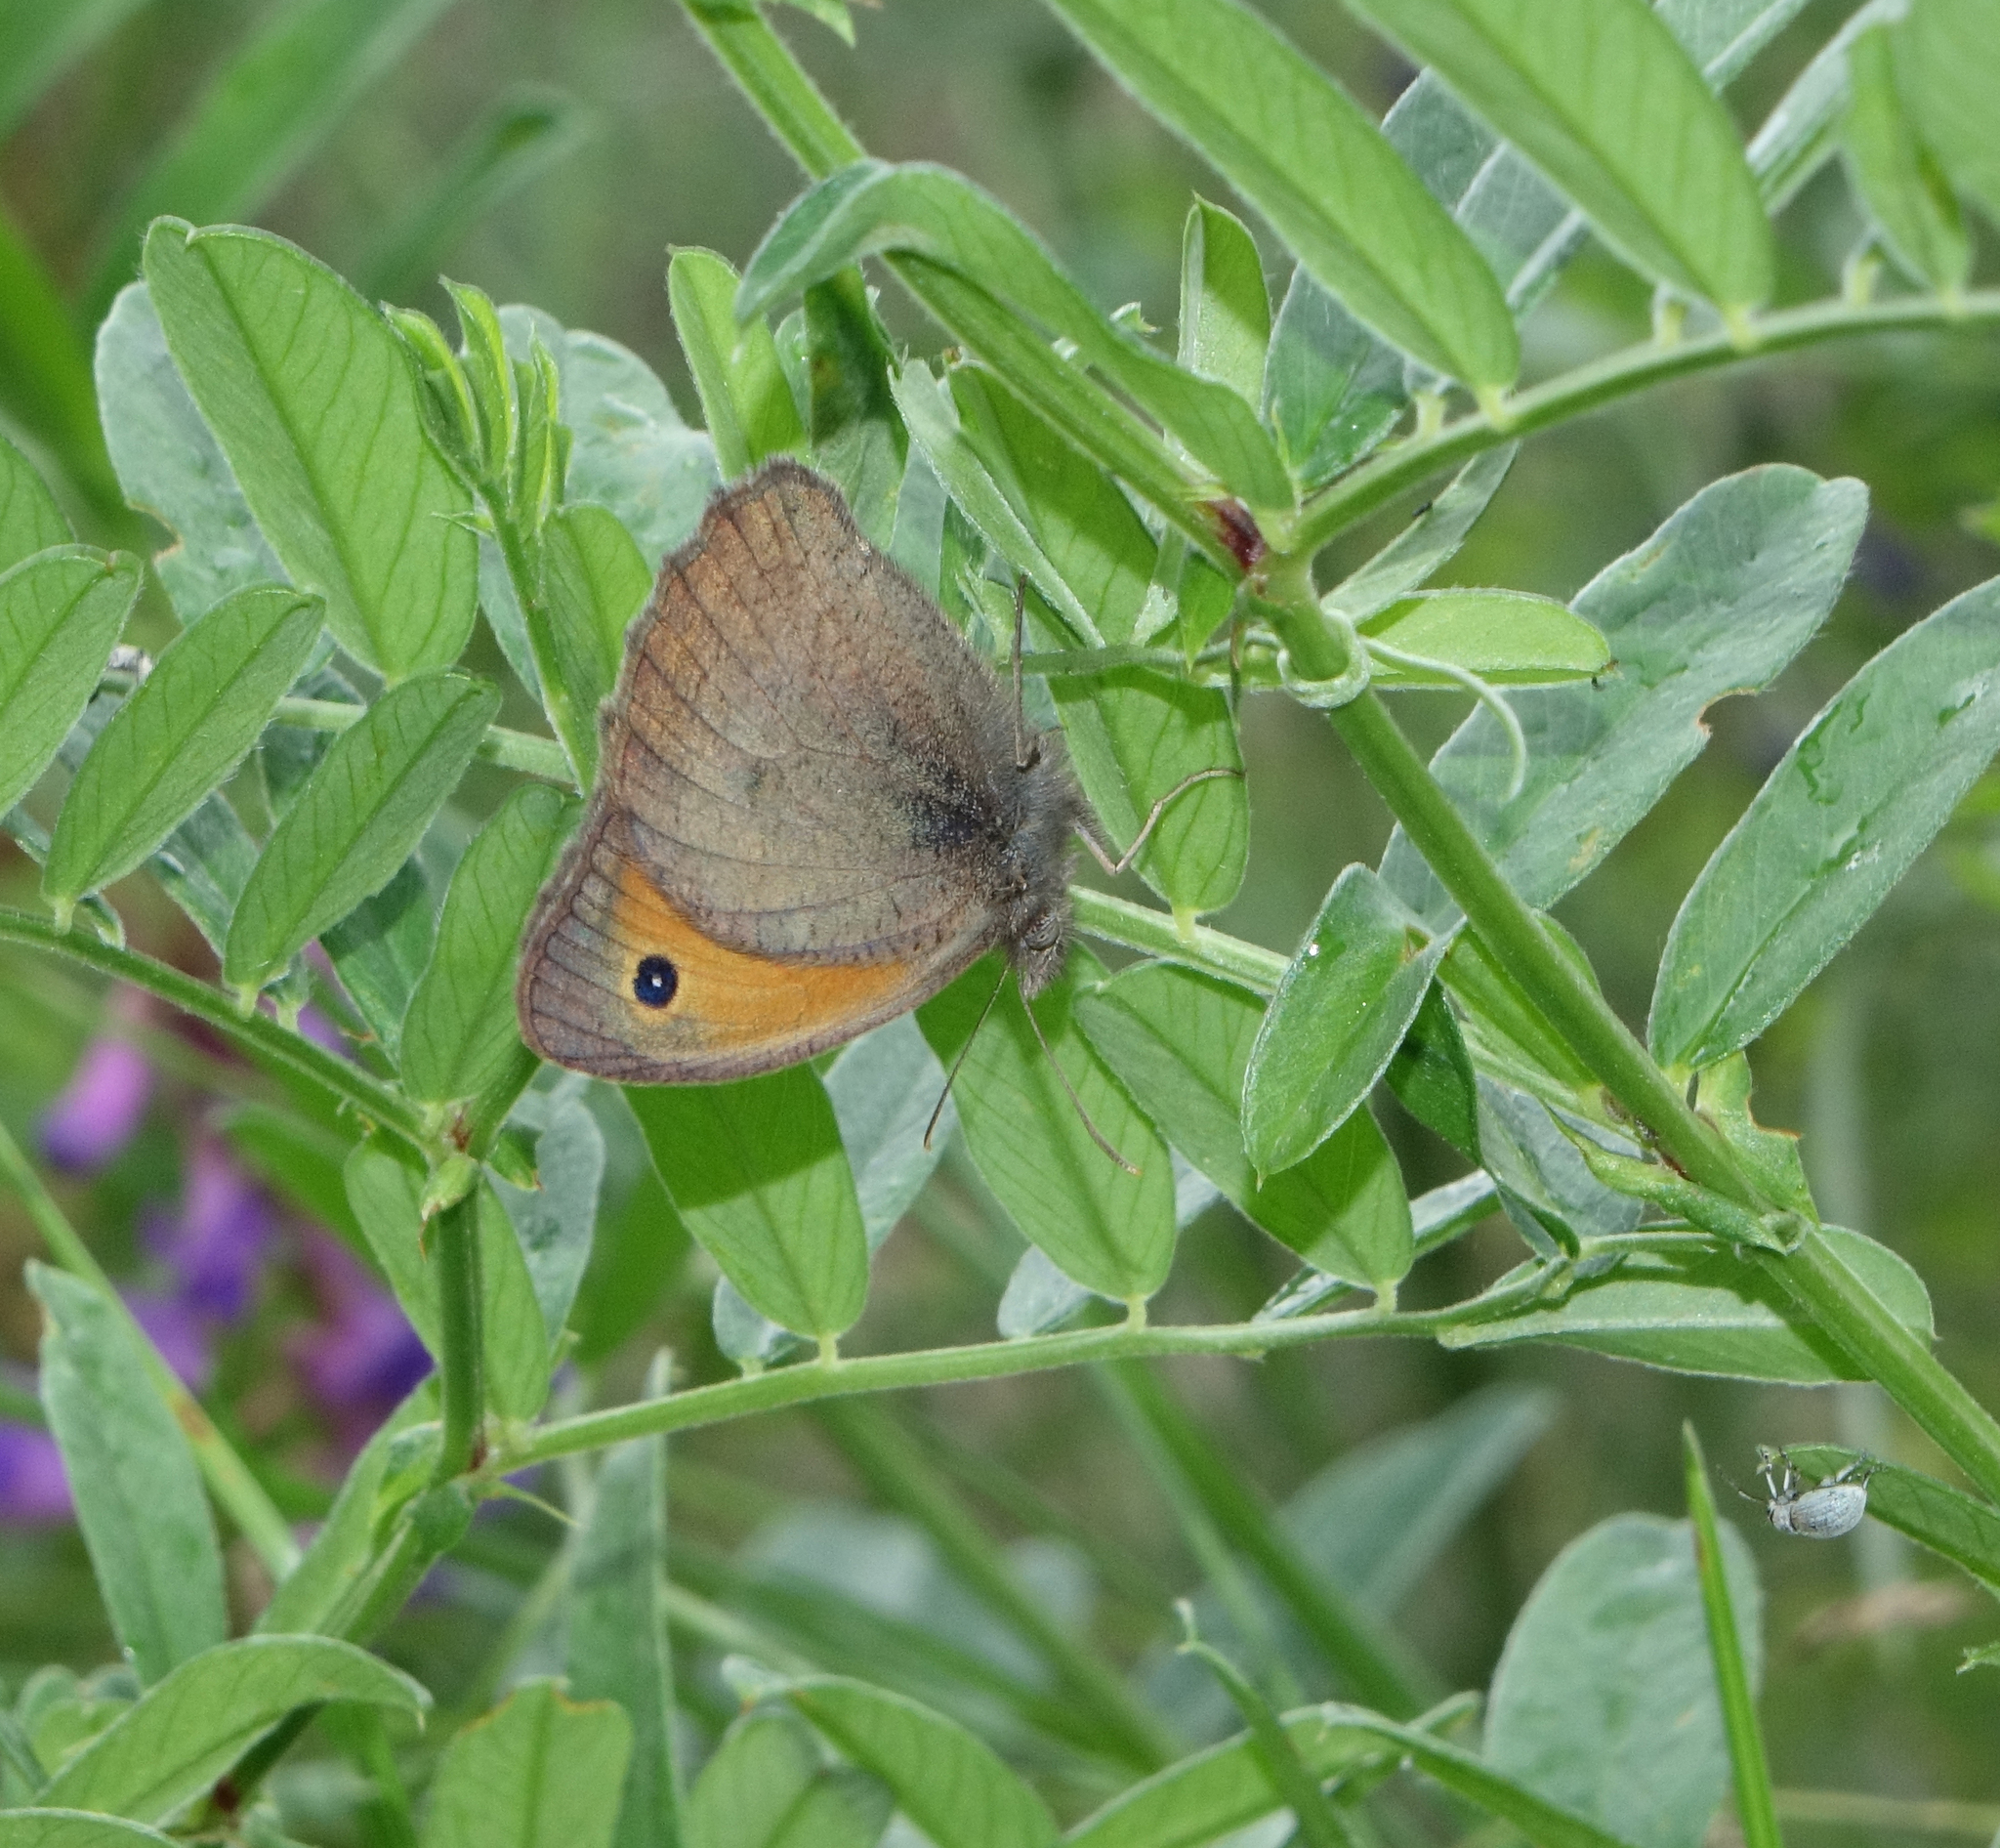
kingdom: Animalia
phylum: Arthropoda
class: Insecta
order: Lepidoptera
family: Nymphalidae
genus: Hyponephele
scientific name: Hyponephele lycaon
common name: Dusky meadow brown
